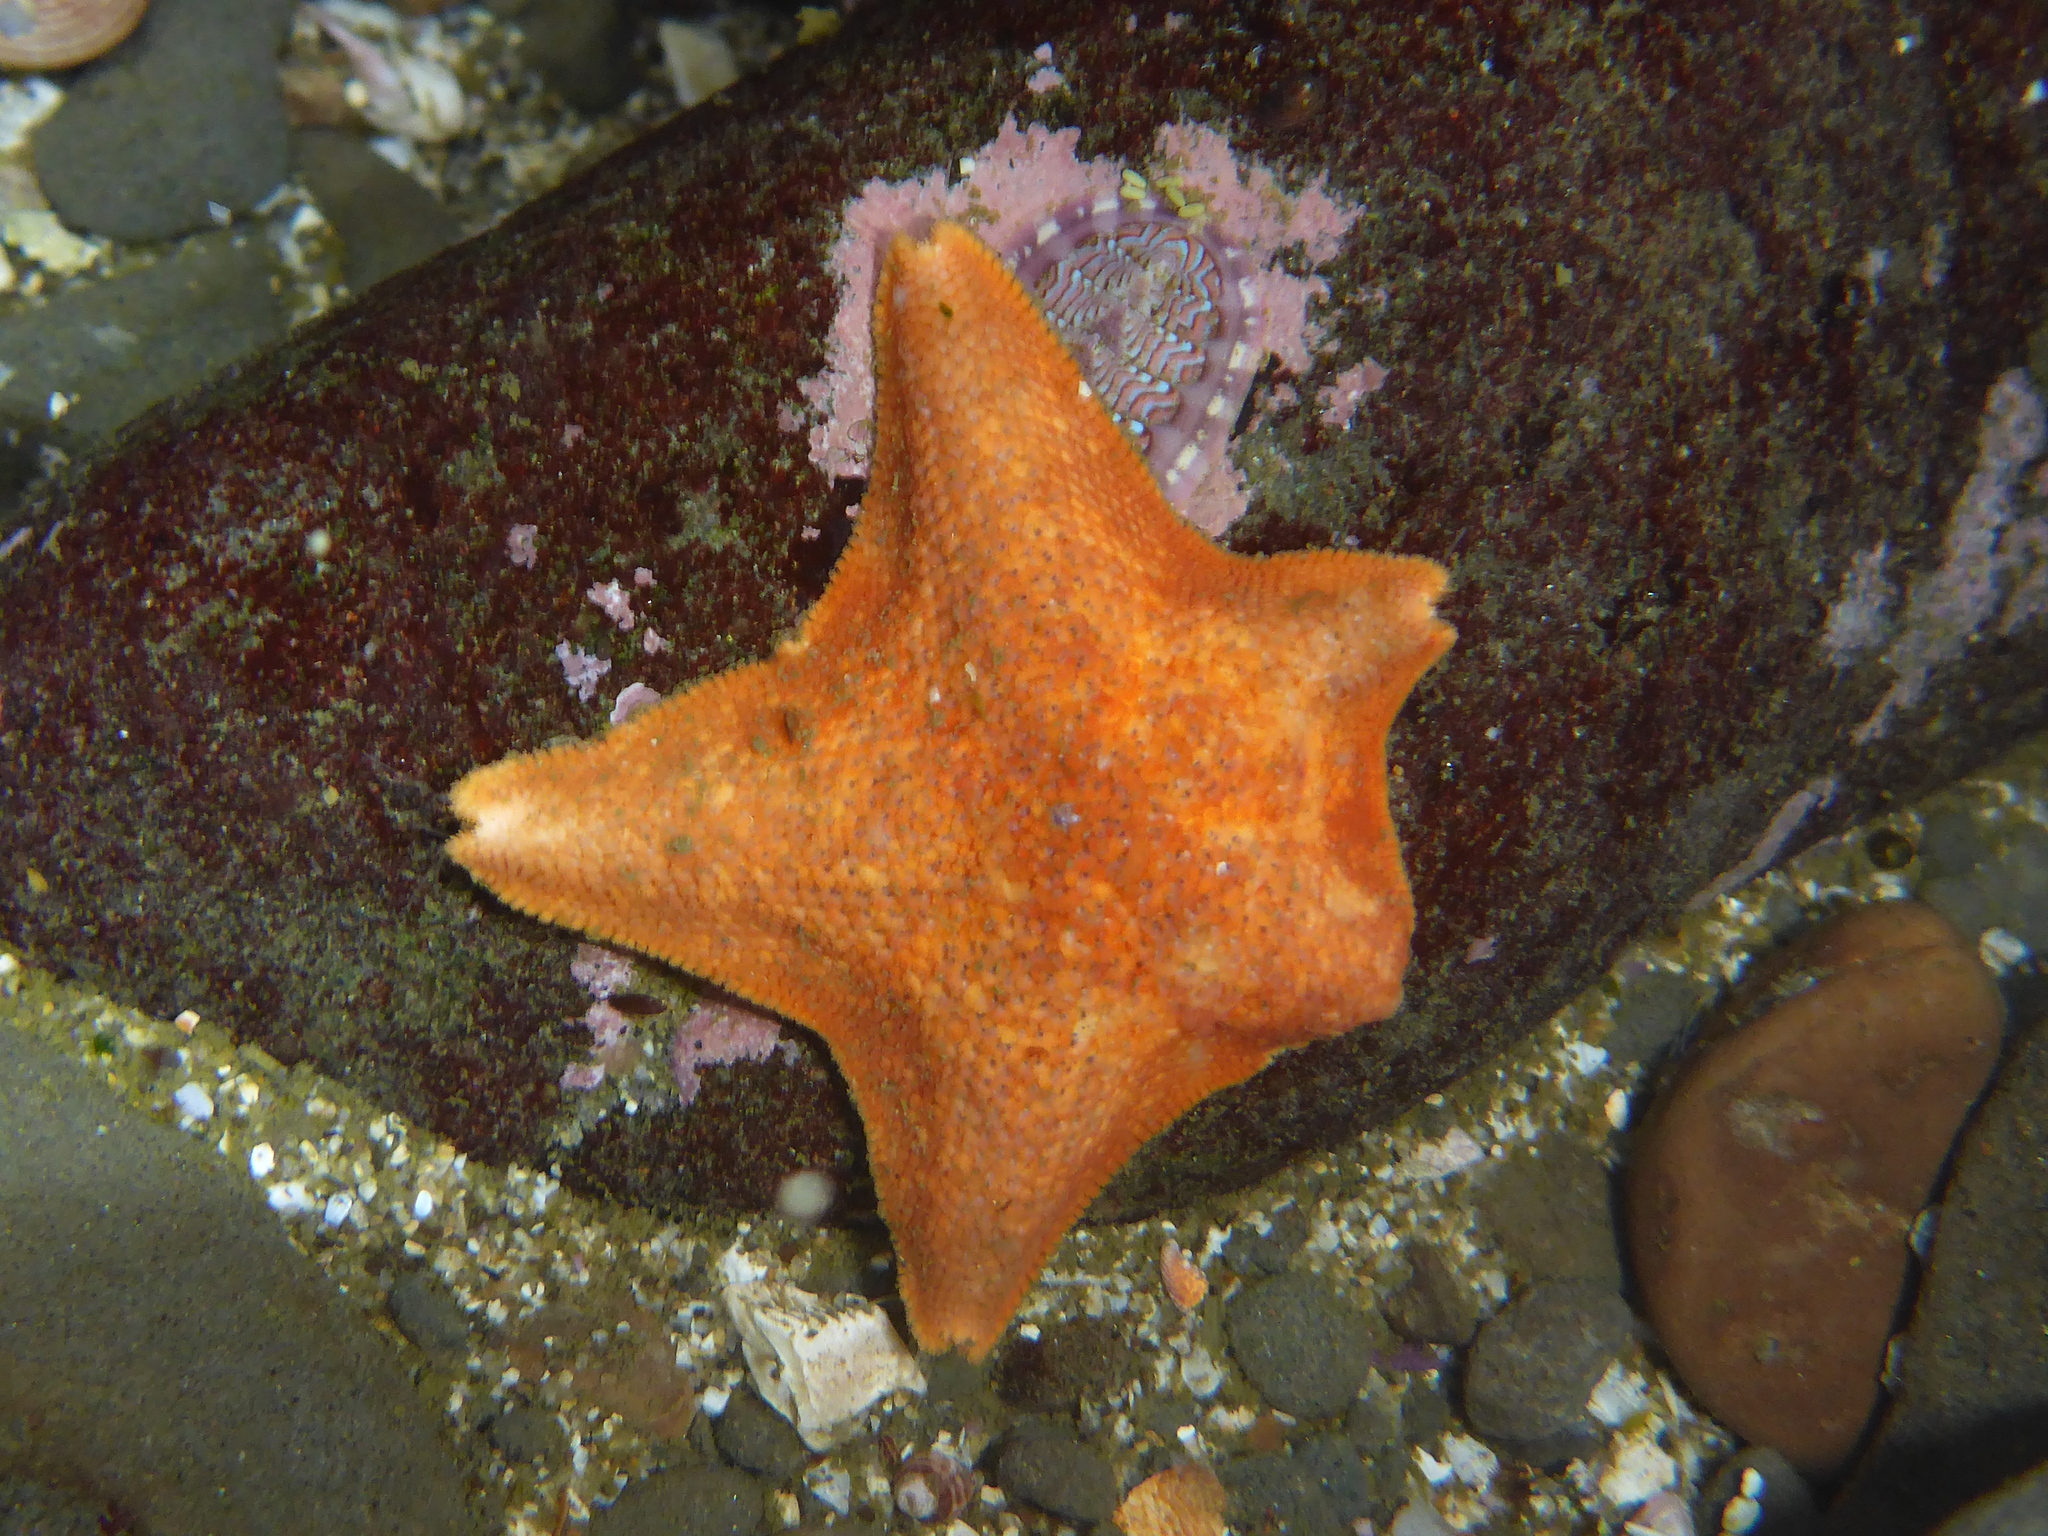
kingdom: Animalia
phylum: Echinodermata
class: Asteroidea
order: Valvatida
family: Asterinidae
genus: Patiria
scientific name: Patiria miniata
